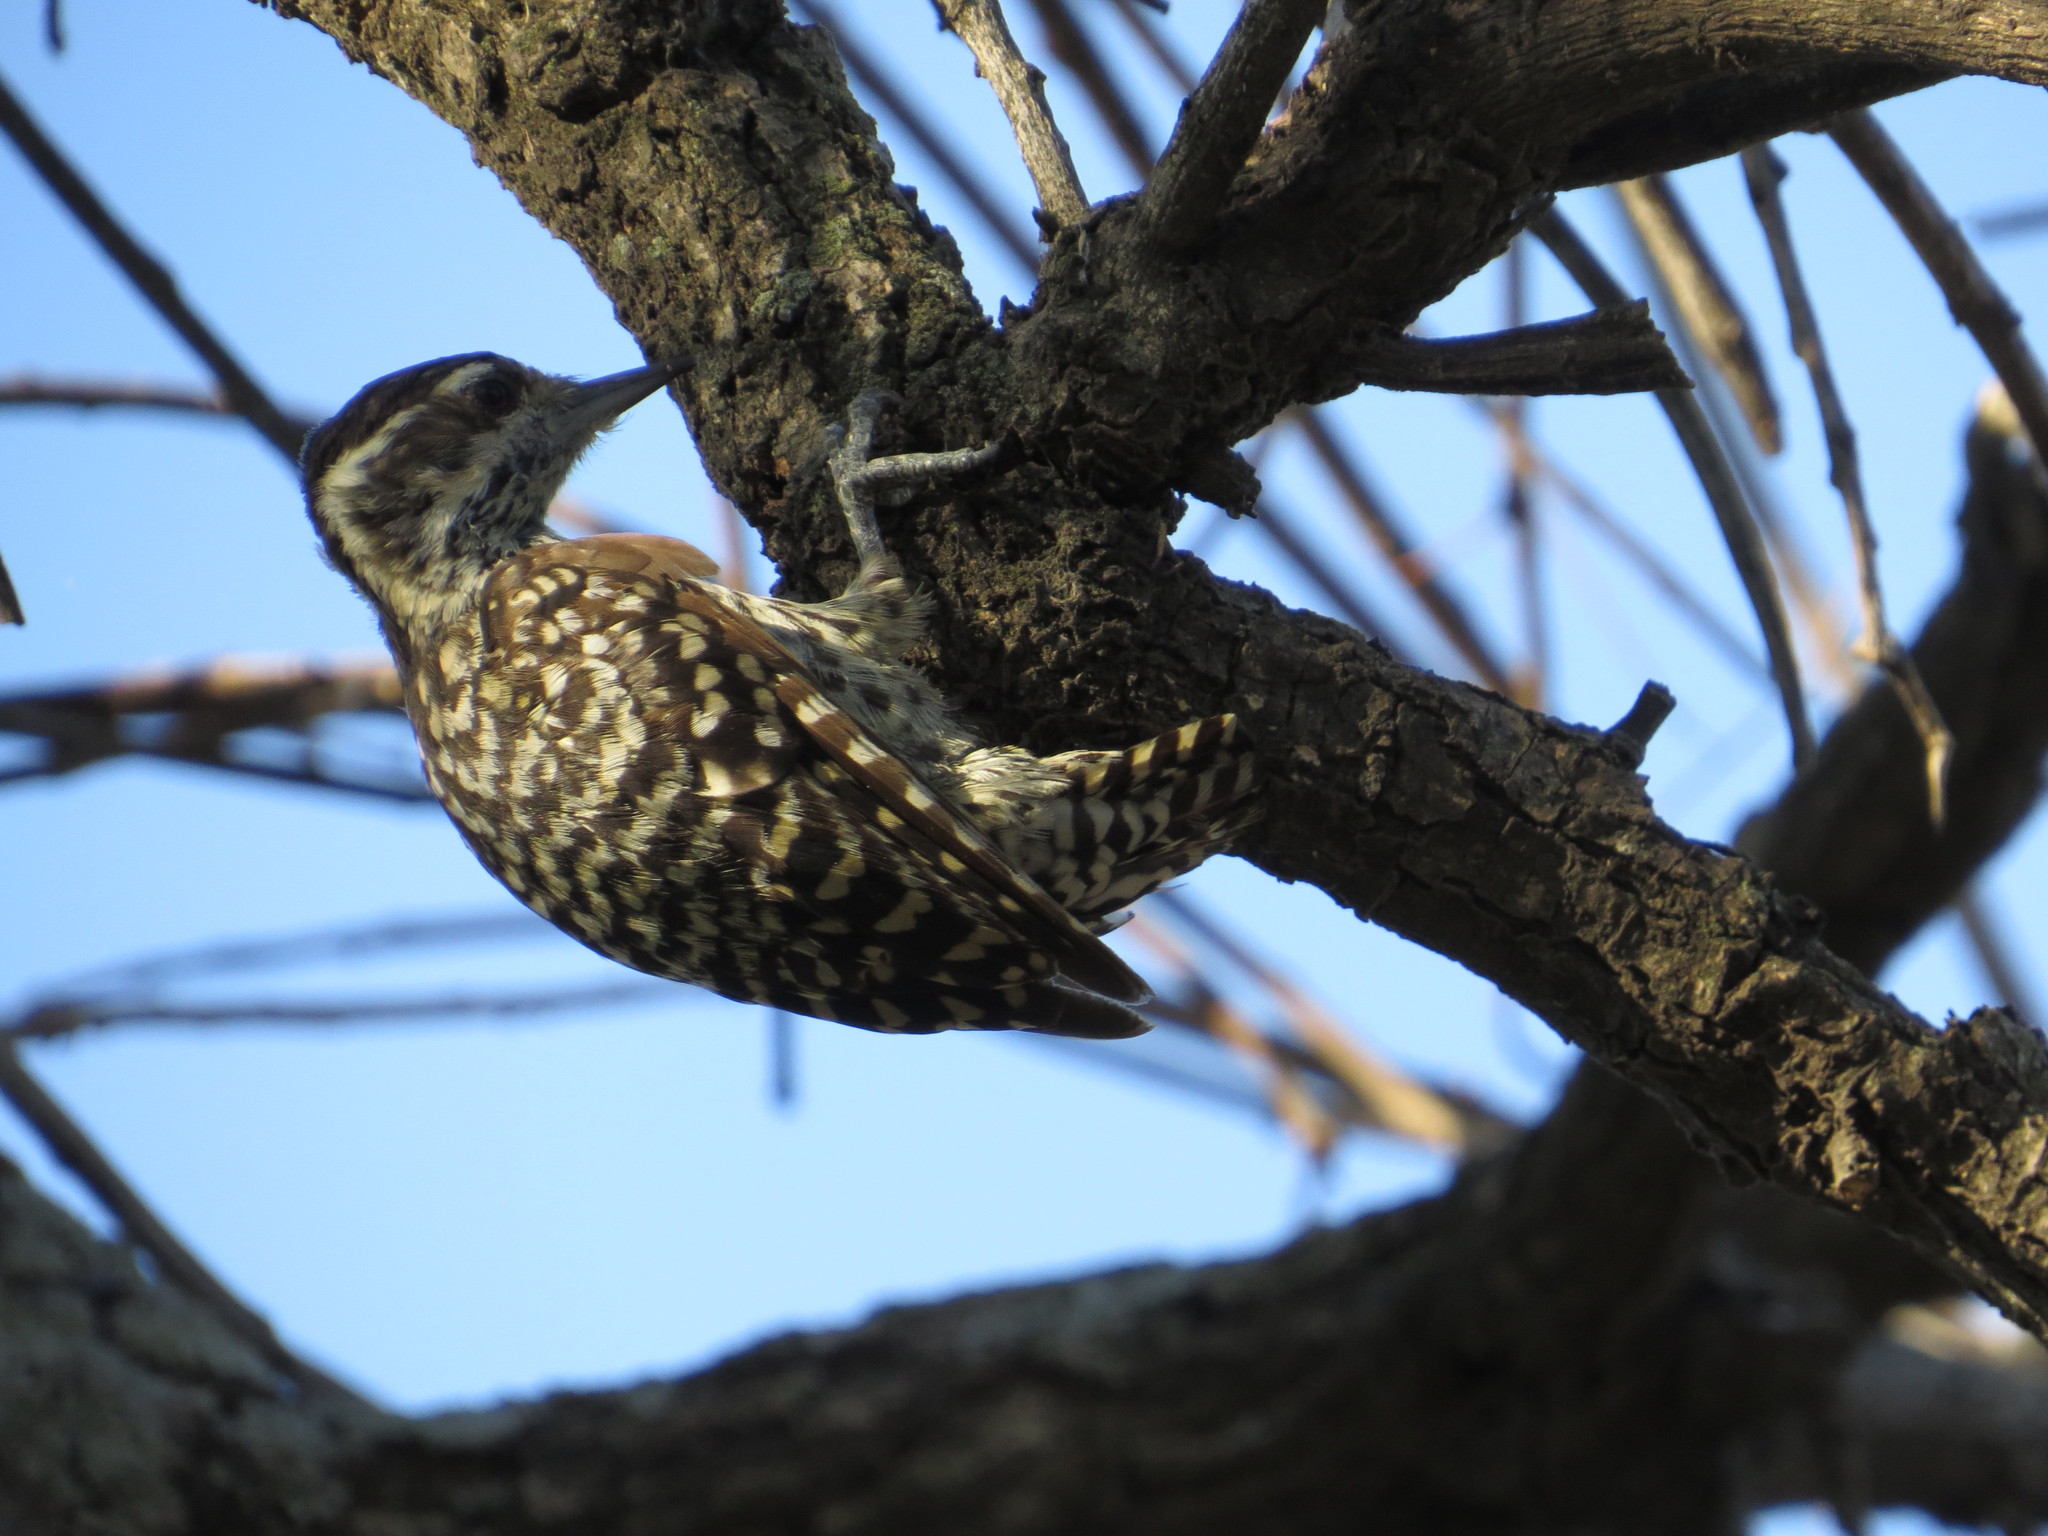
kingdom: Animalia
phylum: Chordata
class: Aves
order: Piciformes
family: Picidae
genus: Veniliornis
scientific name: Veniliornis mixtus
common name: Checkered woodpecker
